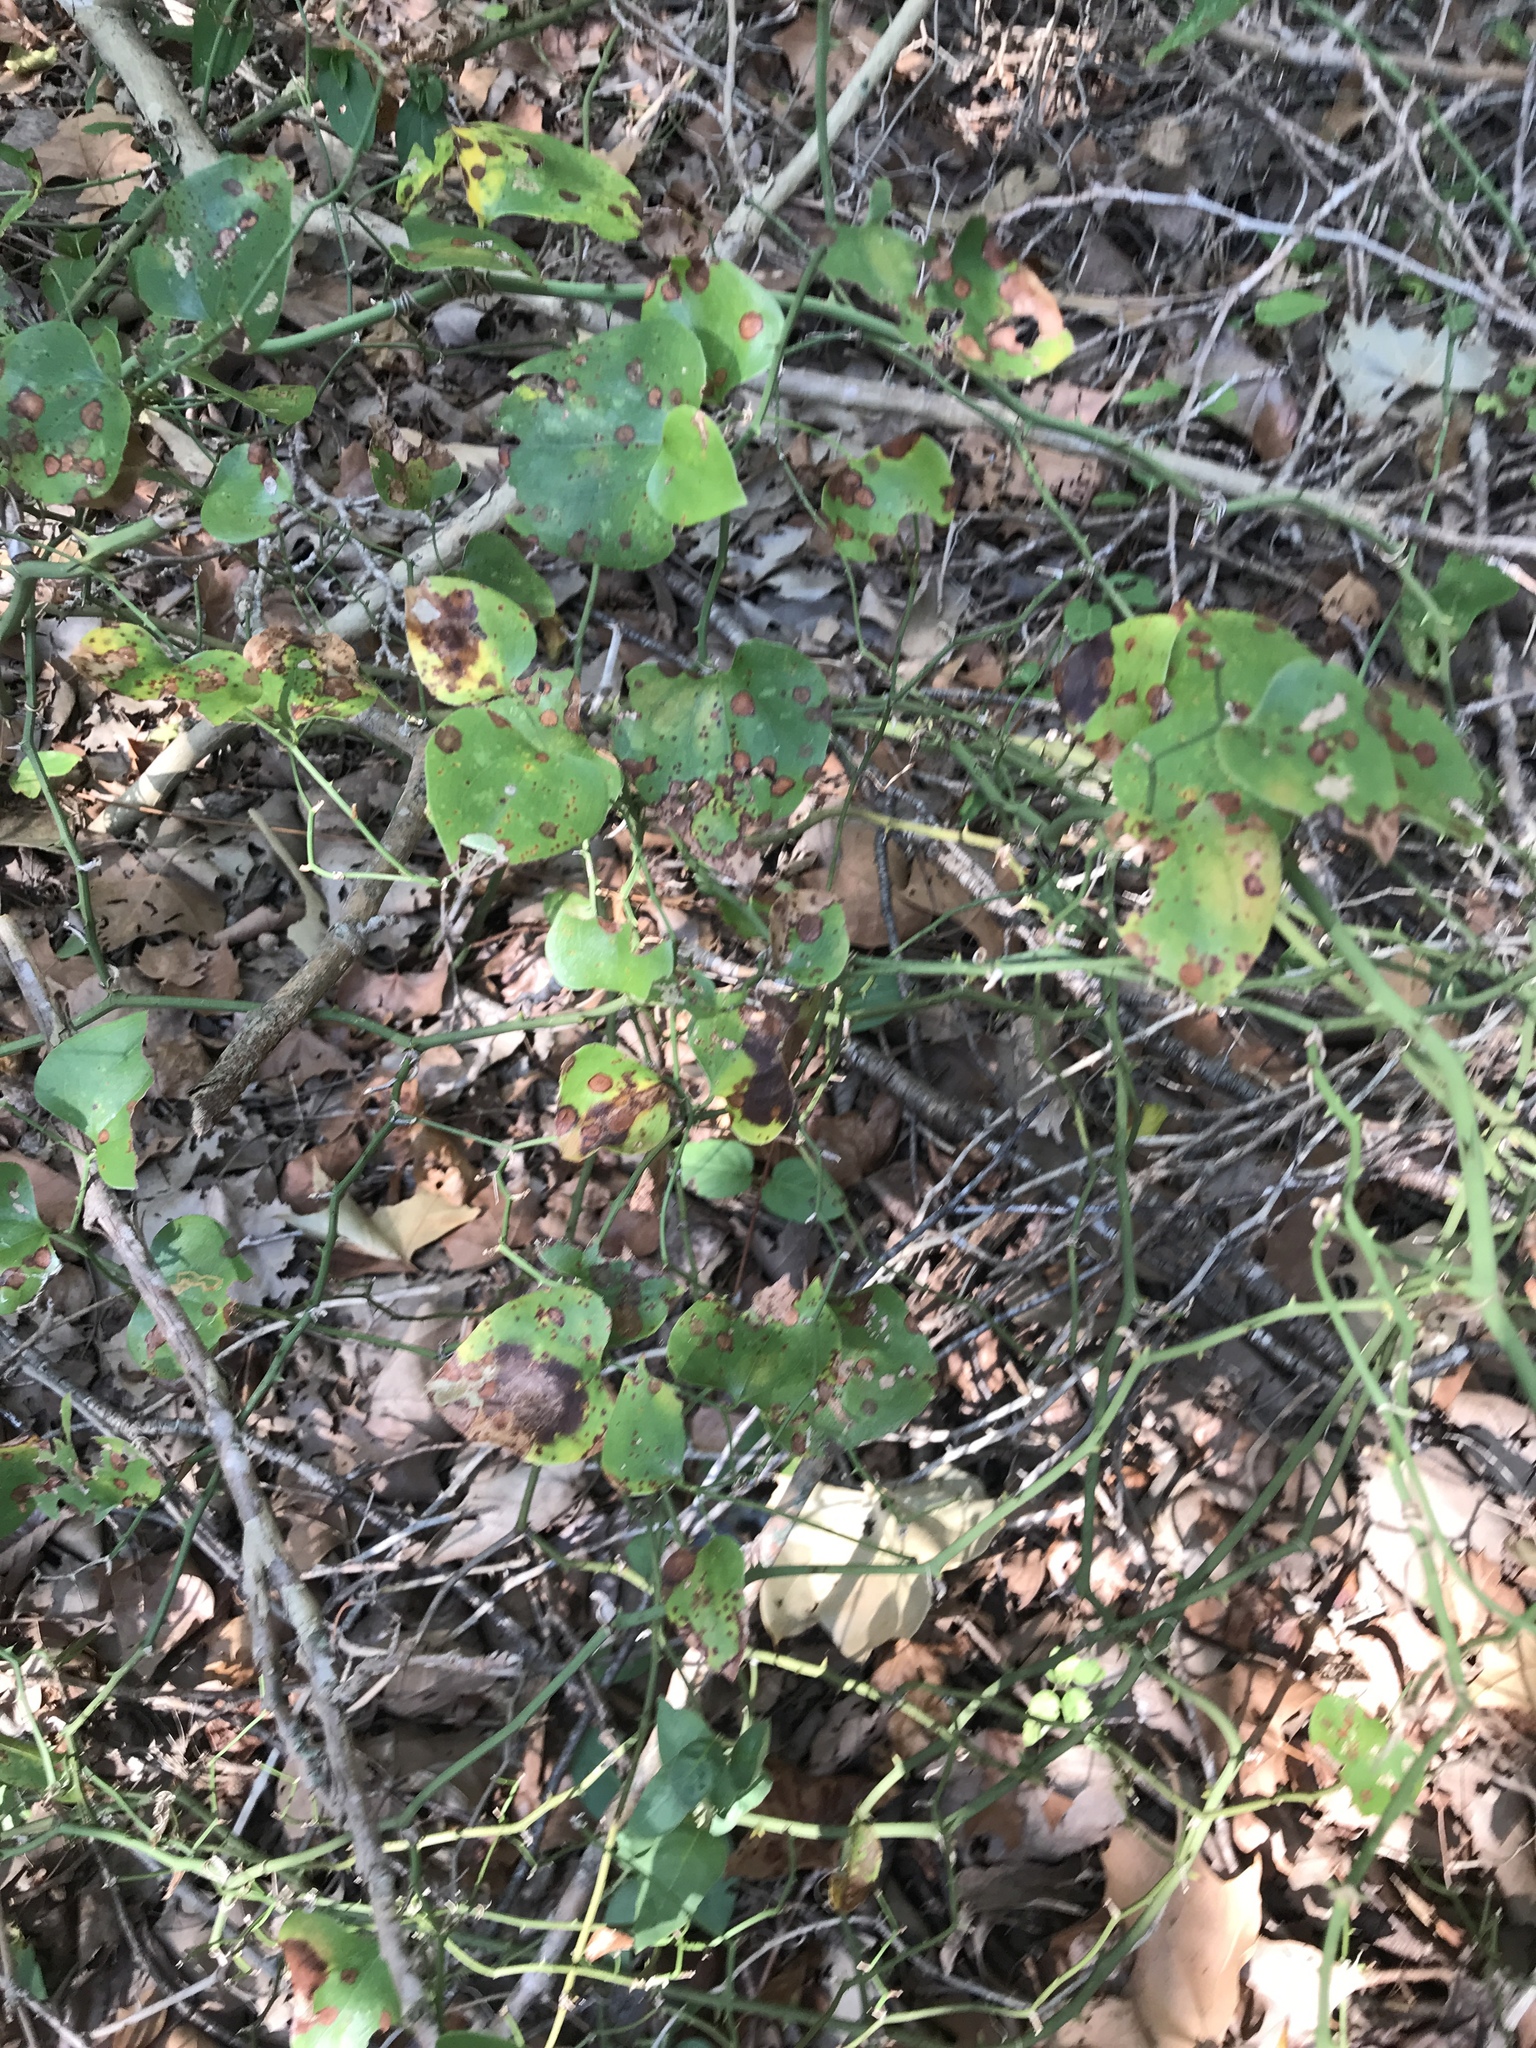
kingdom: Plantae
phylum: Tracheophyta
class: Liliopsida
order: Liliales
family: Smilacaceae
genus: Smilax
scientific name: Smilax bona-nox
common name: Catbrier
